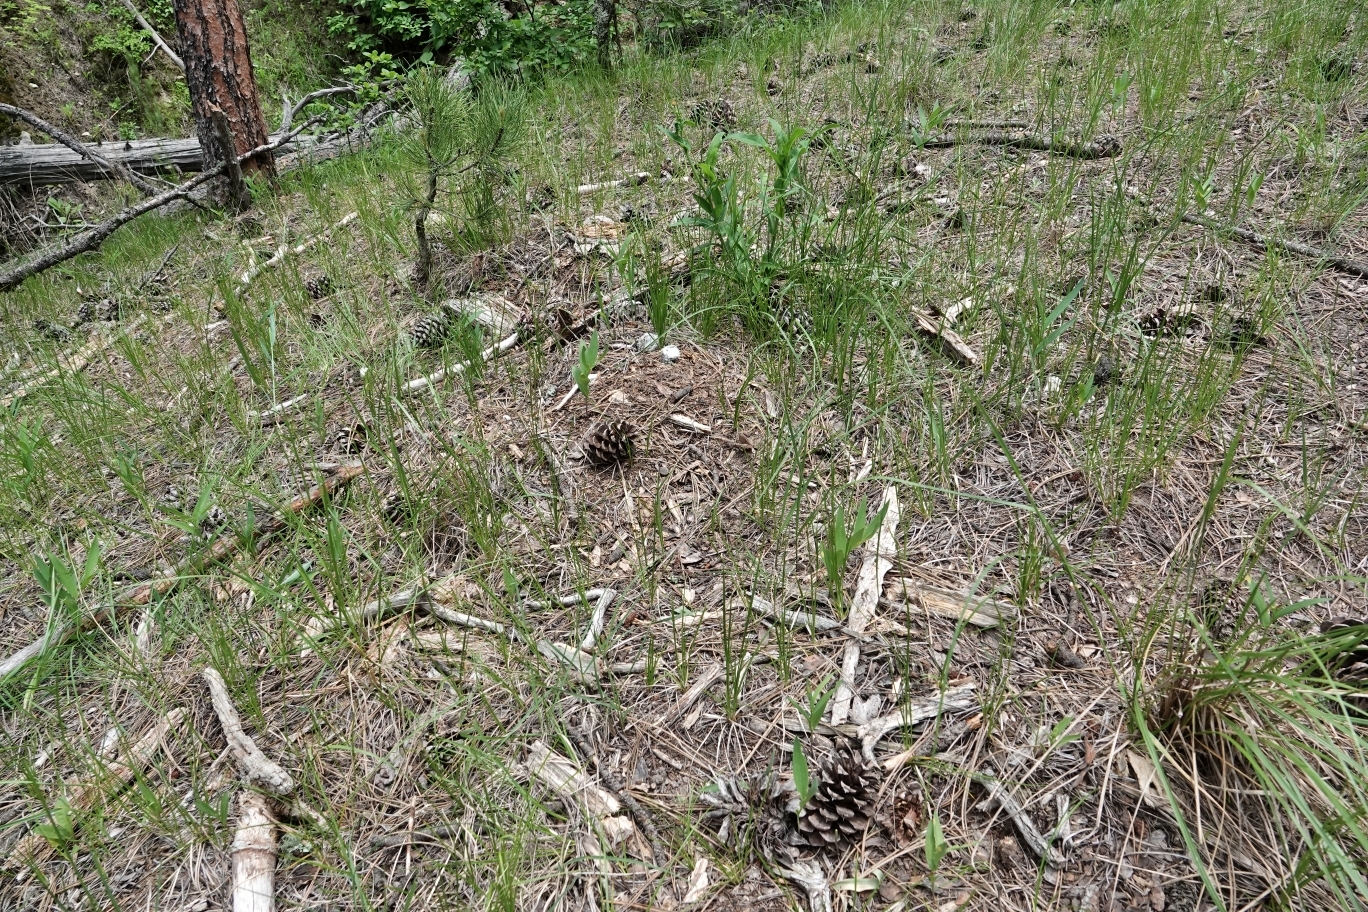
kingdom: Animalia
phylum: Chordata
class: Mammalia
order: Carnivora
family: Felidae
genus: Puma
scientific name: Puma concolor
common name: Puma
